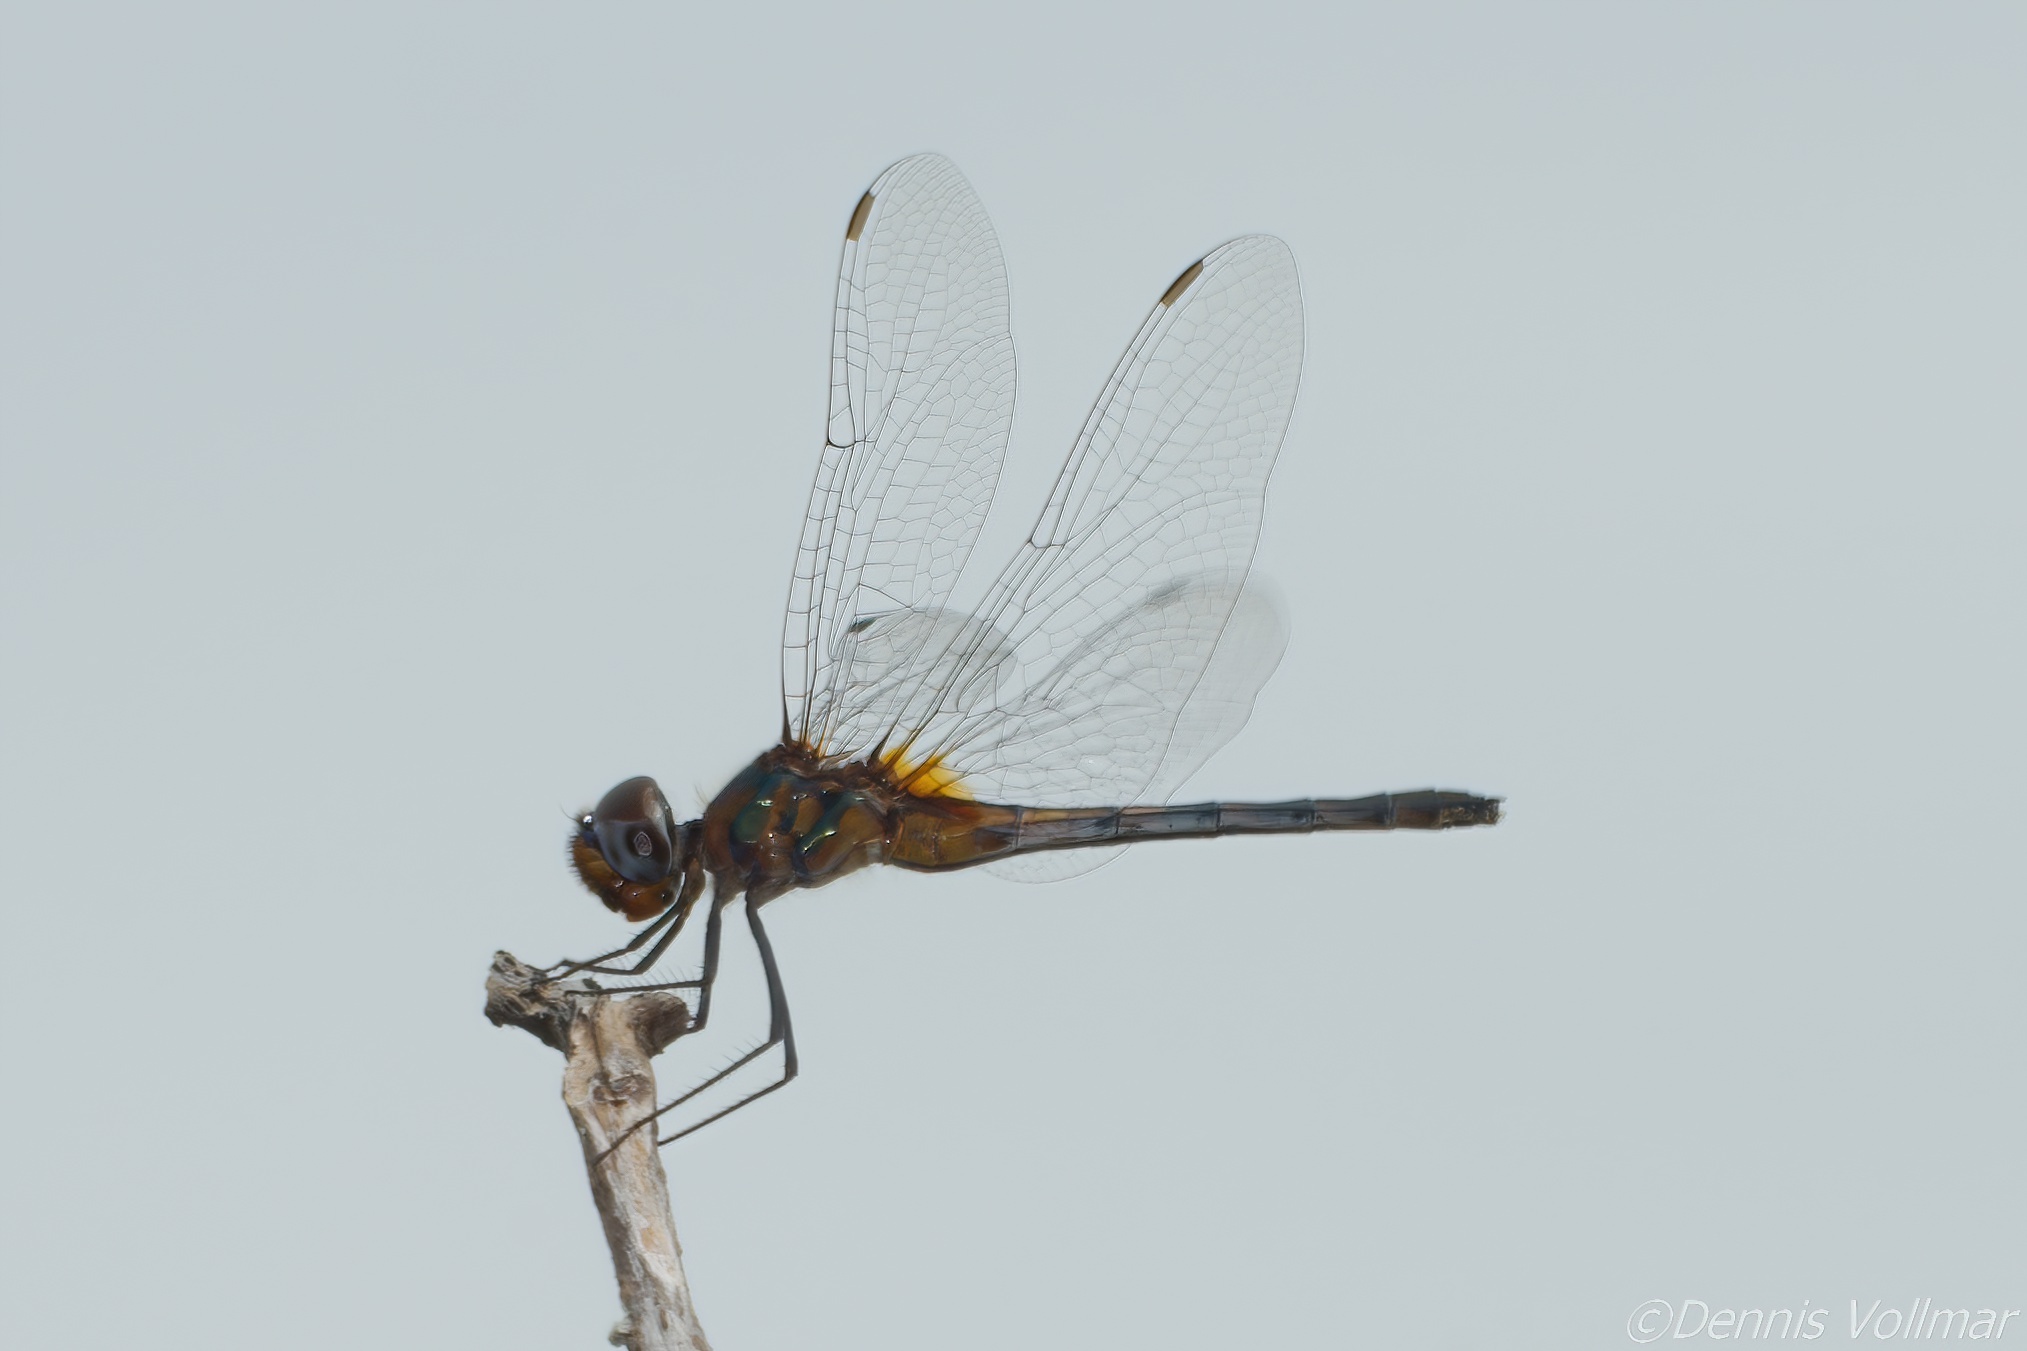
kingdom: Animalia
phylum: Arthropoda
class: Insecta
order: Odonata
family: Libellulidae
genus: Idiataphe
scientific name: Idiataphe cubensis
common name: Metallic pennant
